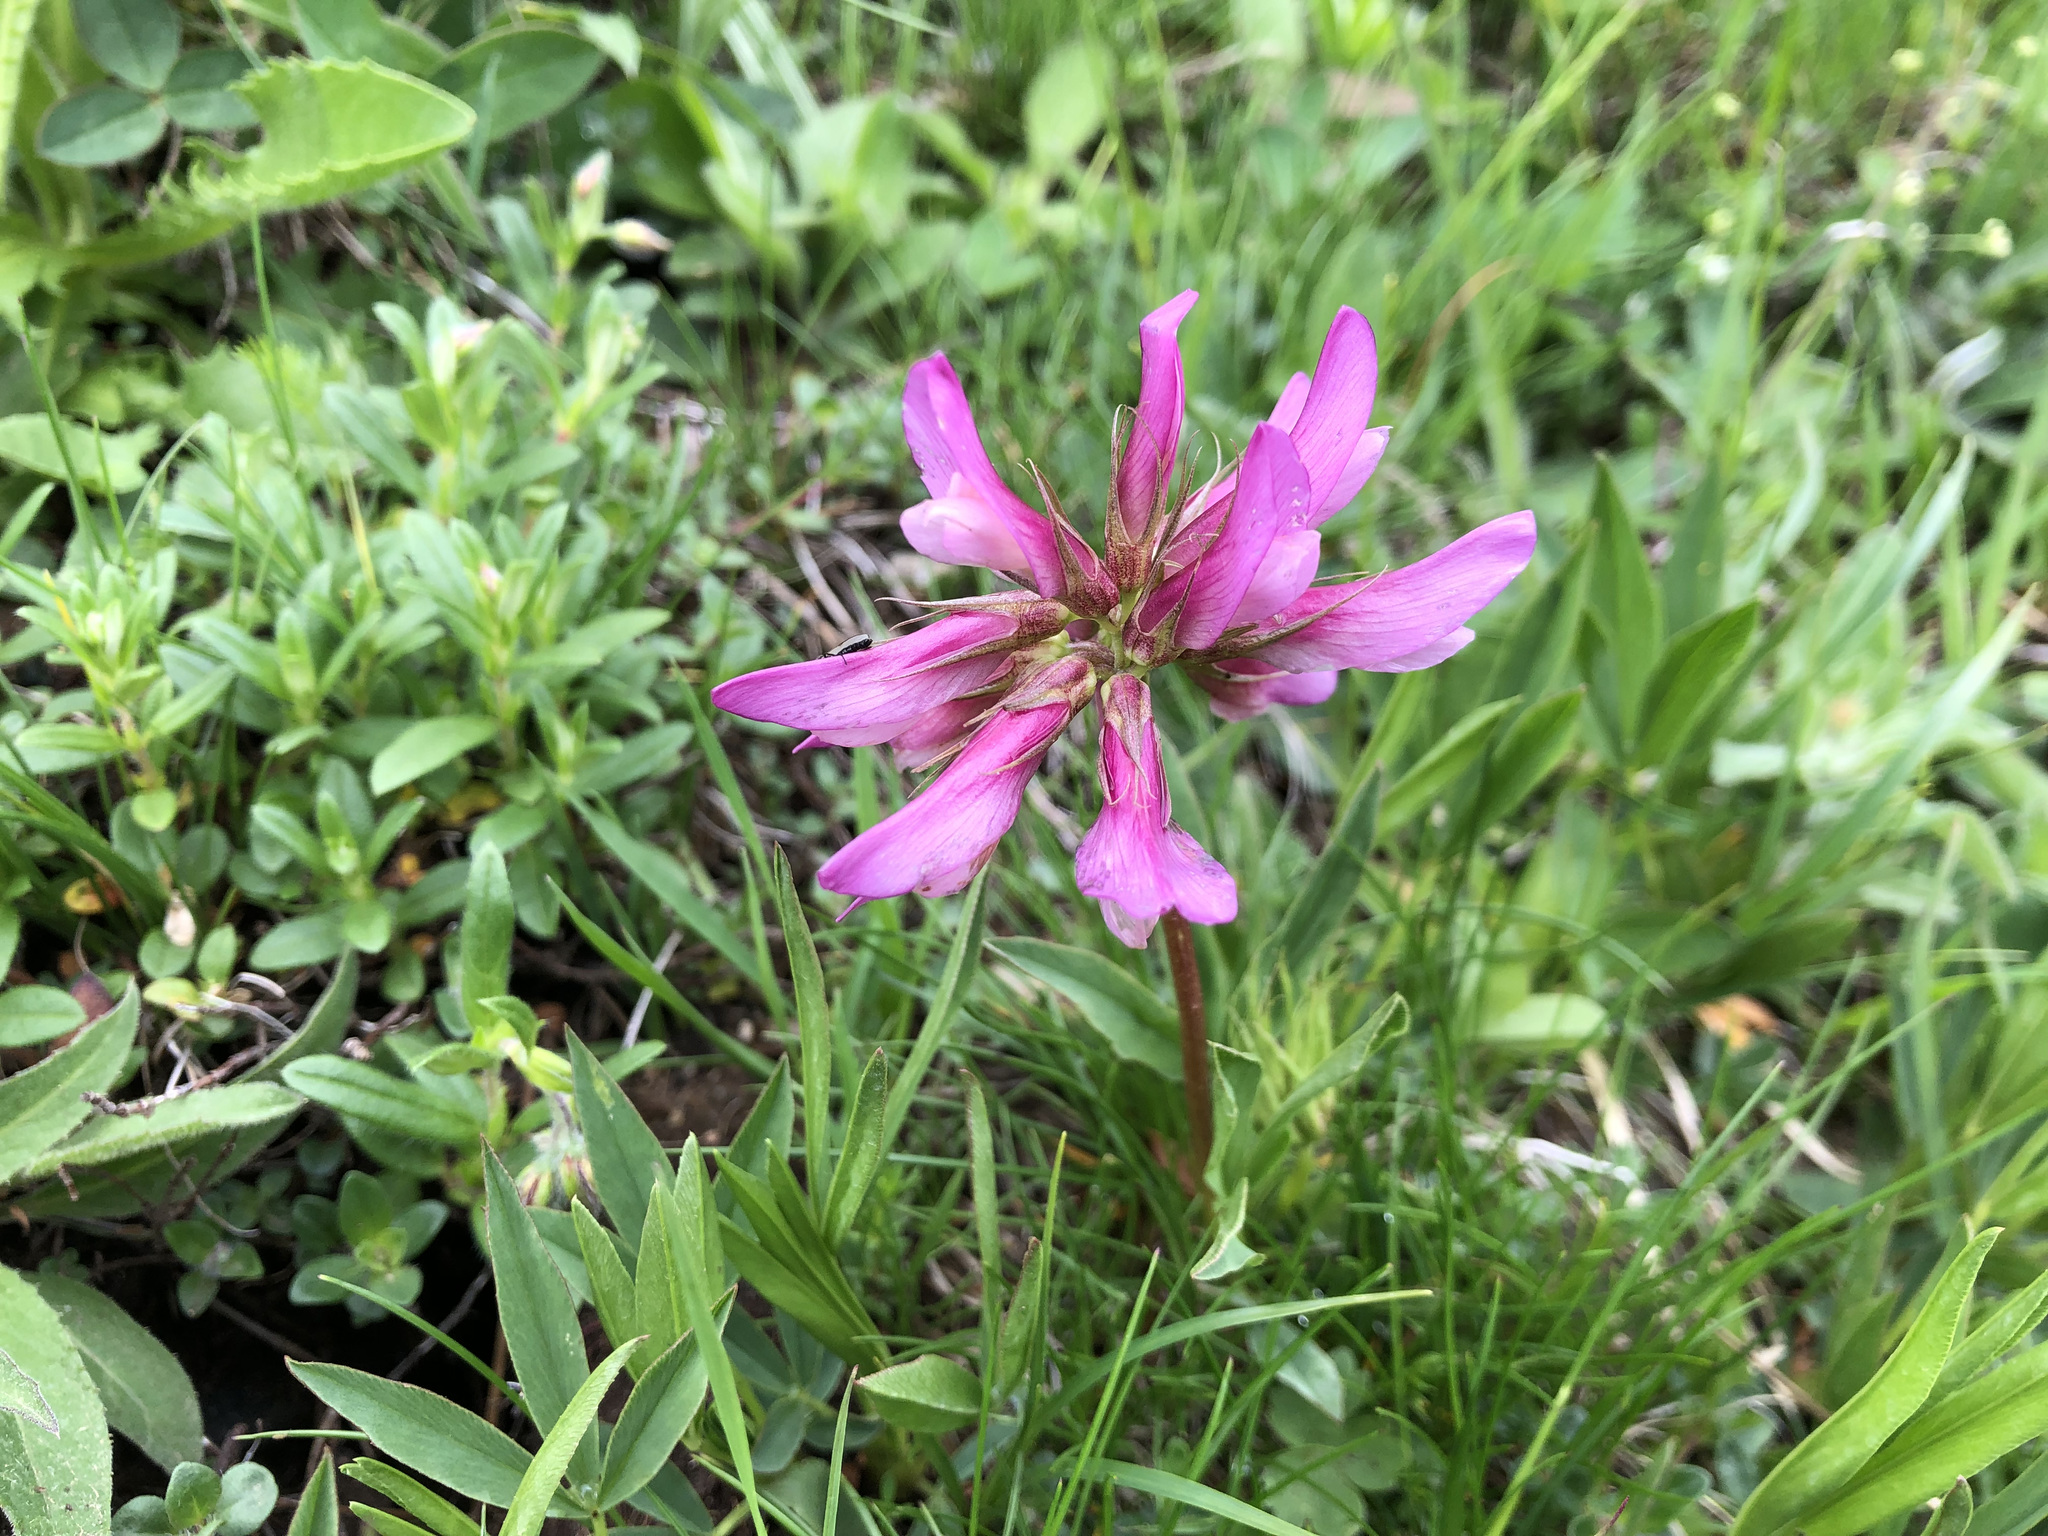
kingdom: Plantae
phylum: Tracheophyta
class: Magnoliopsida
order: Fabales
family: Fabaceae
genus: Trifolium
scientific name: Trifolium alpinum
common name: Alpine clover
